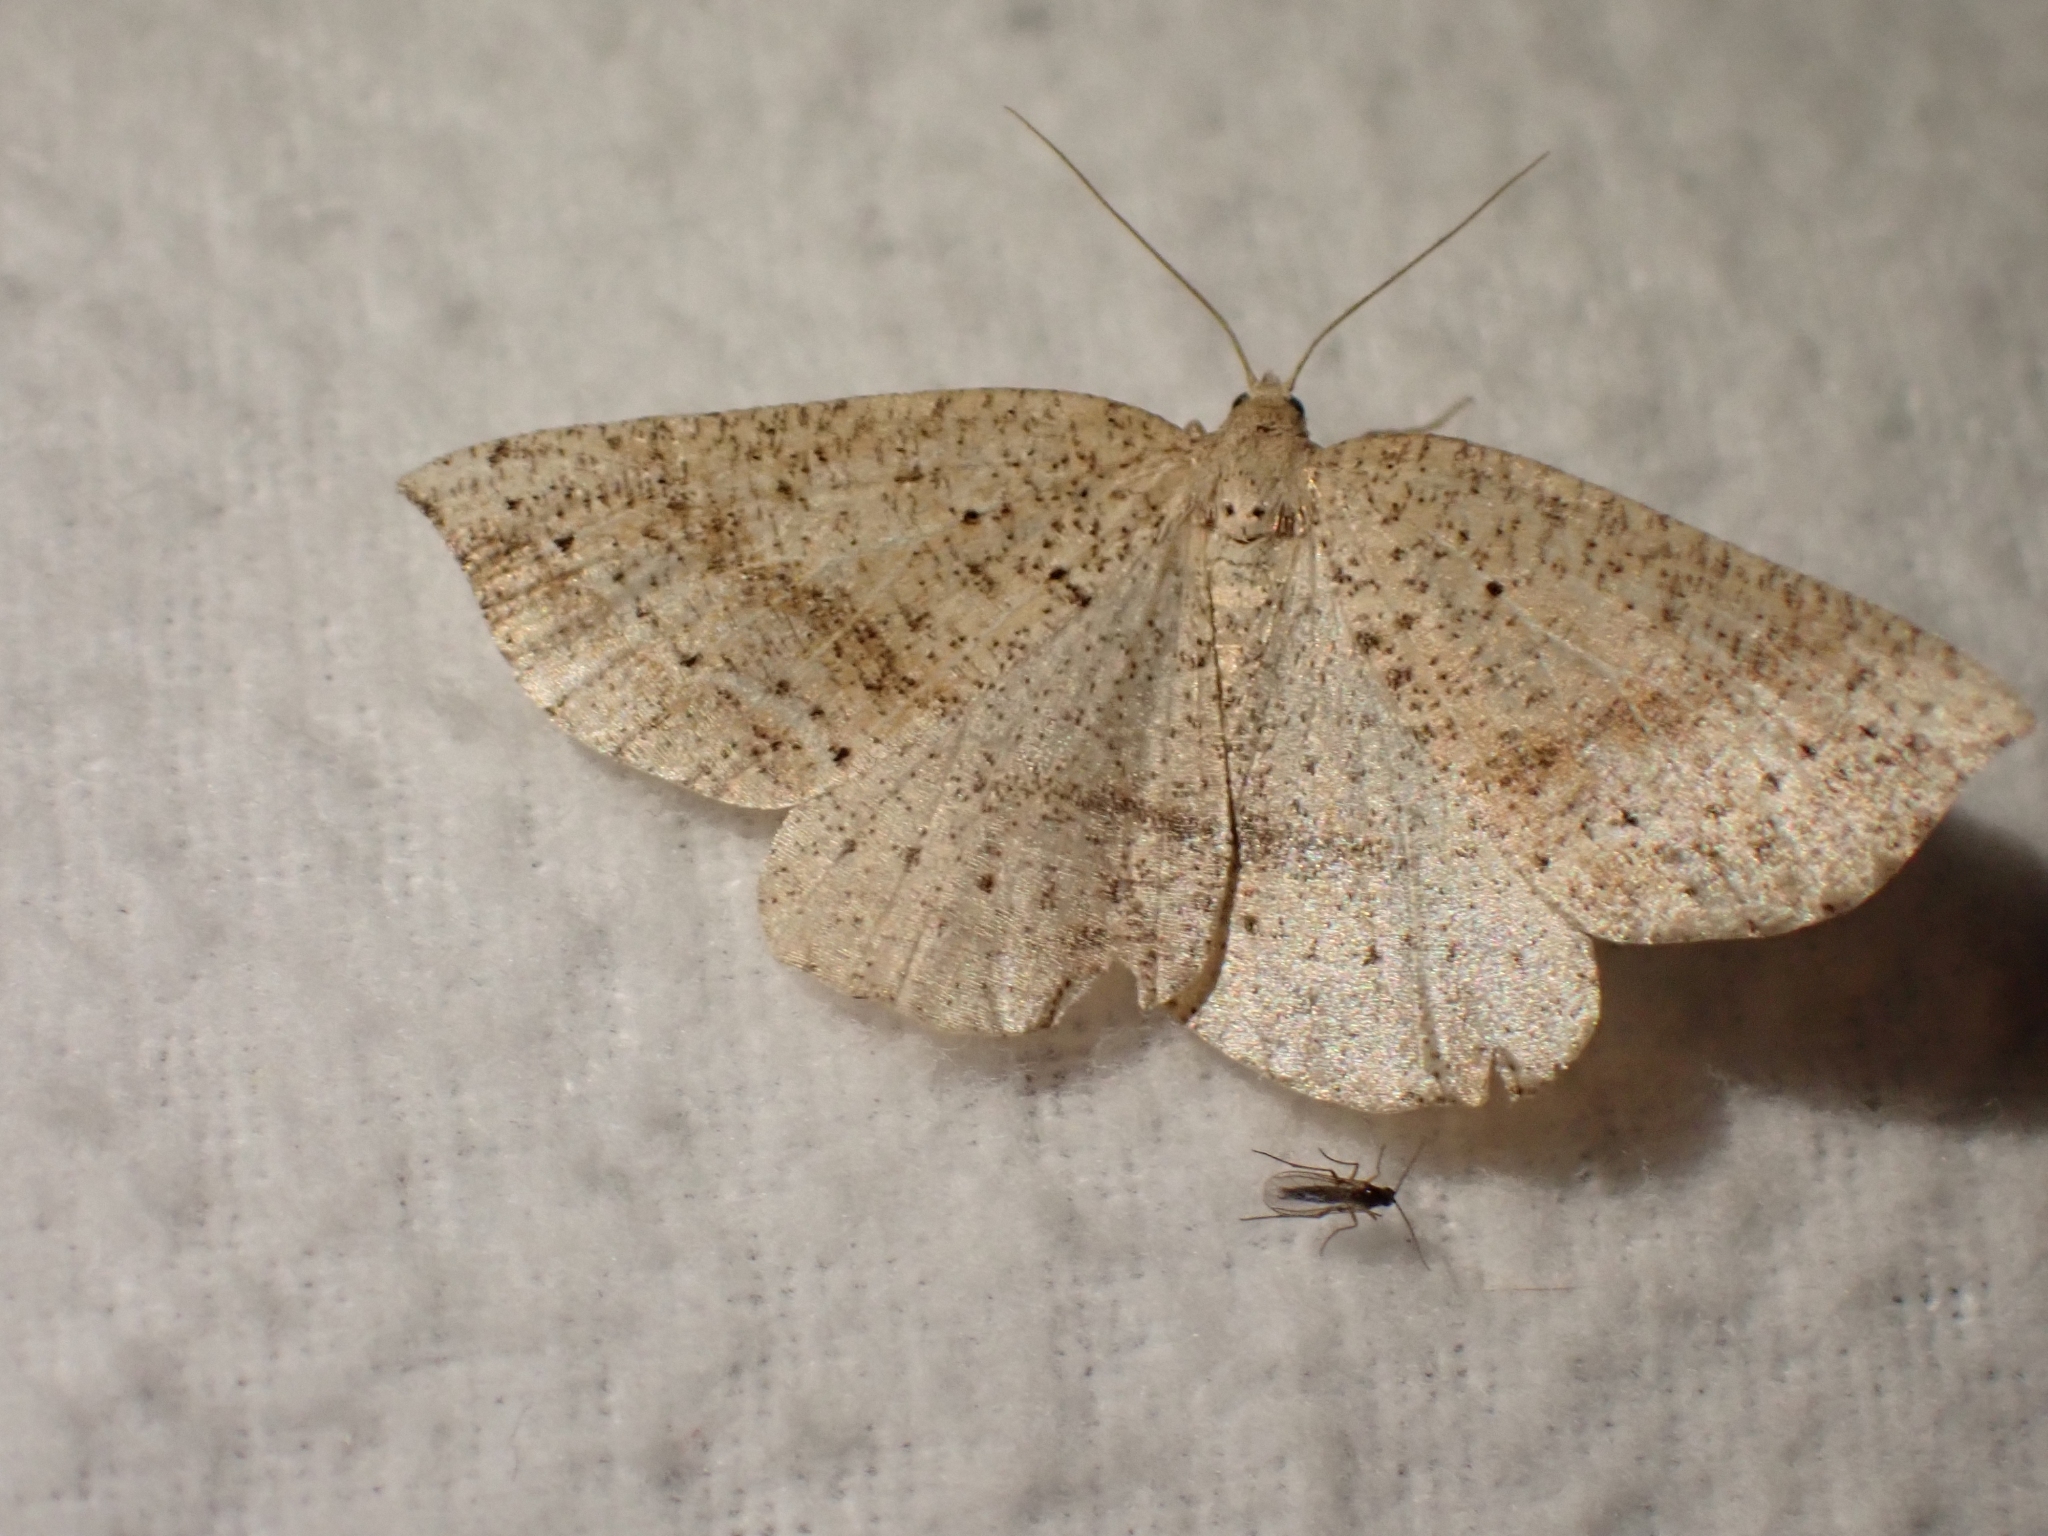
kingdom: Animalia
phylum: Arthropoda
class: Insecta
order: Lepidoptera
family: Geometridae
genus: Thallophaga
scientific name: Thallophaga taylorata
